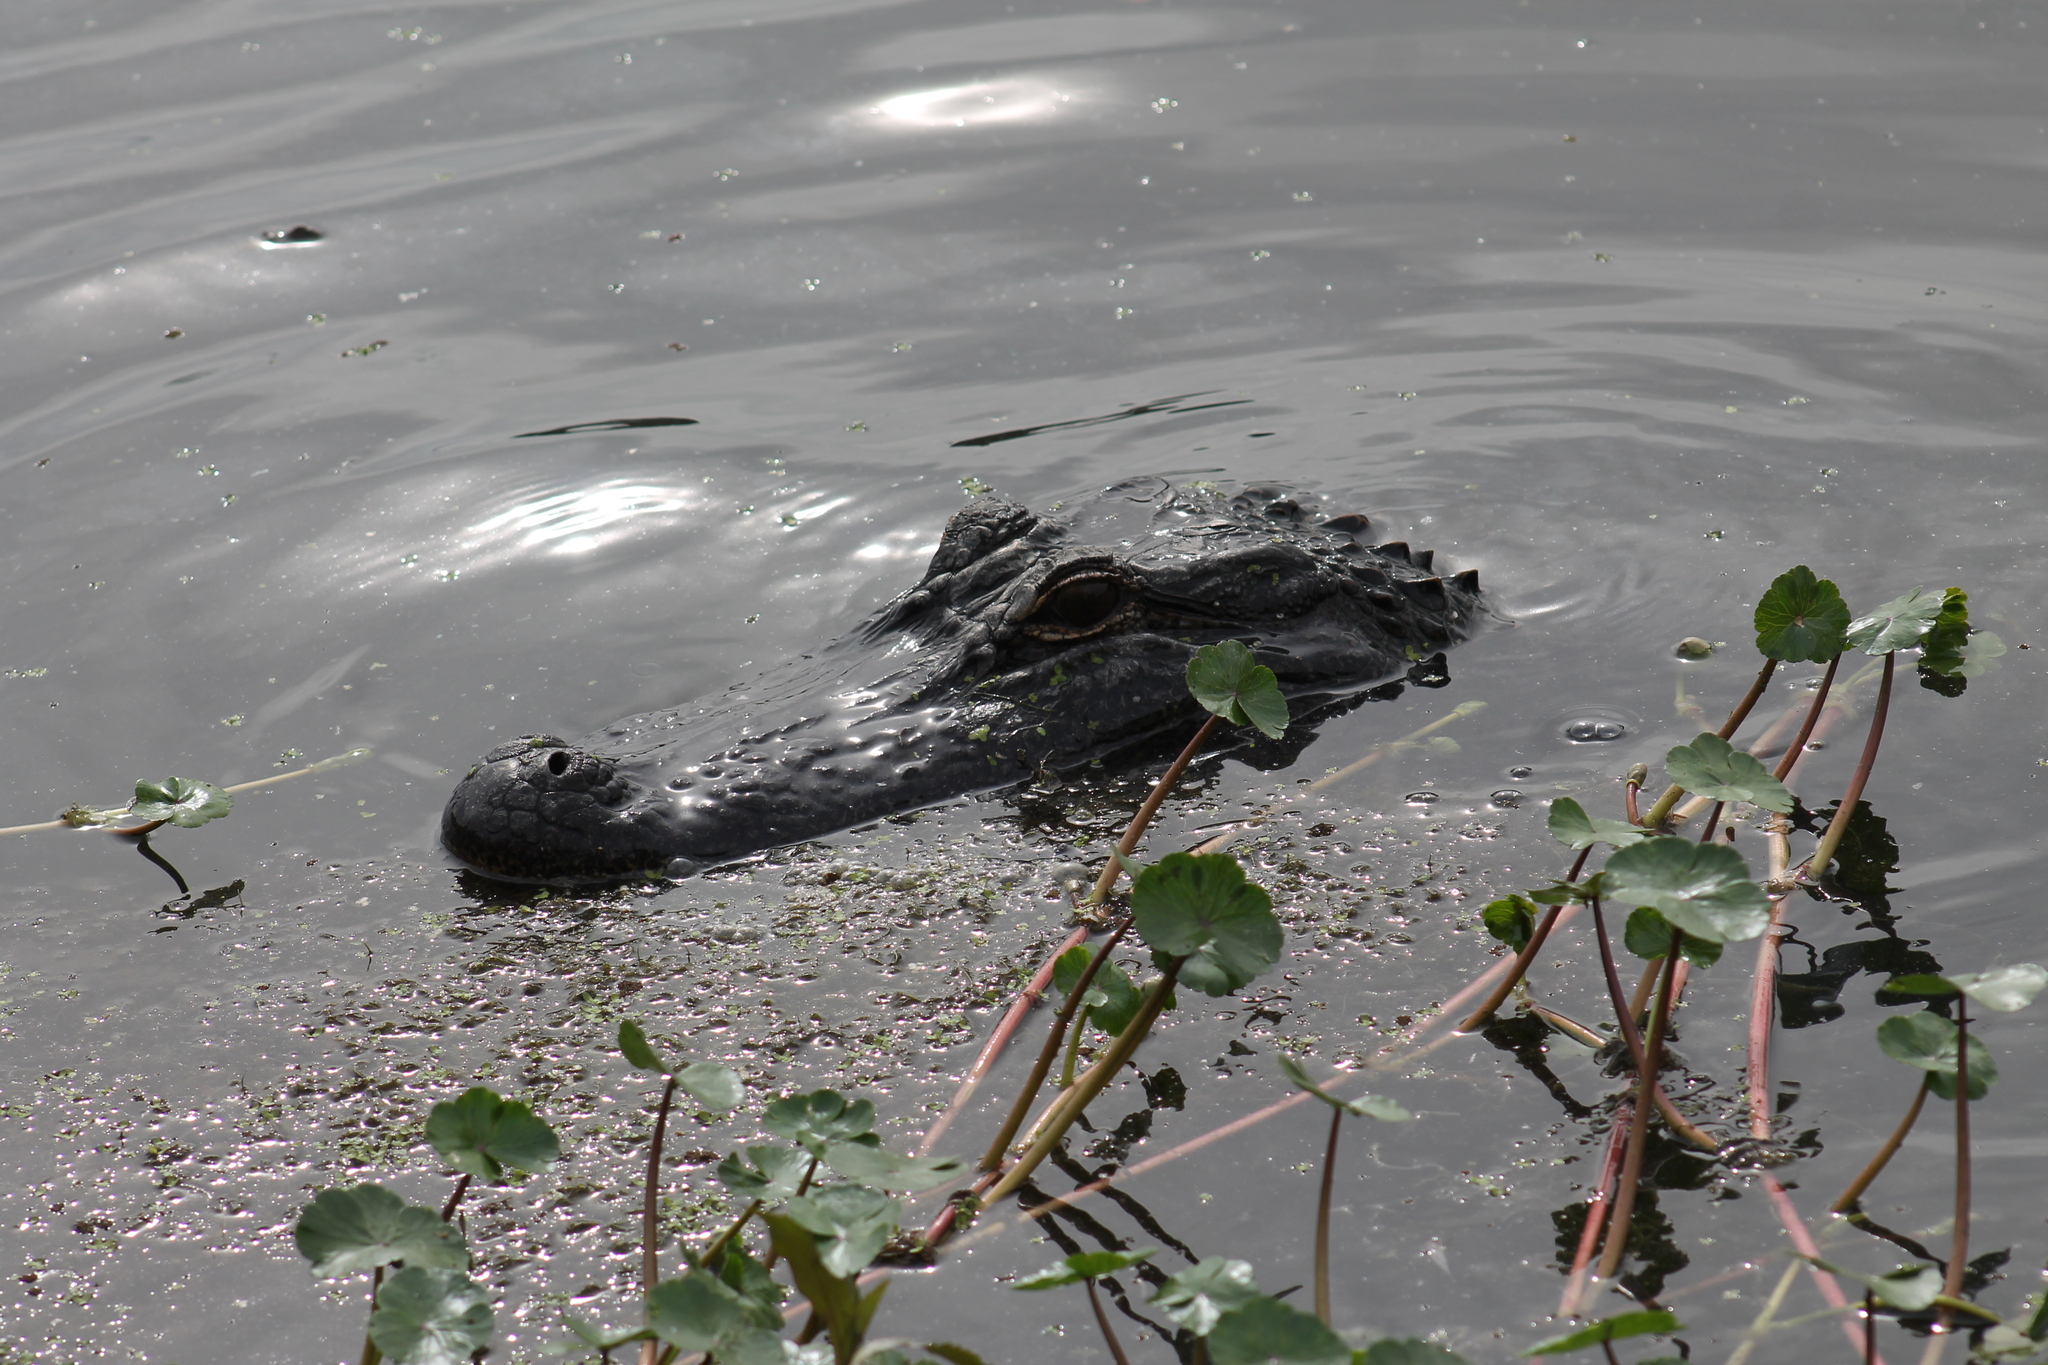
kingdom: Animalia
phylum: Chordata
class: Crocodylia
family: Alligatoridae
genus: Alligator
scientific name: Alligator mississippiensis
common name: American alligator
